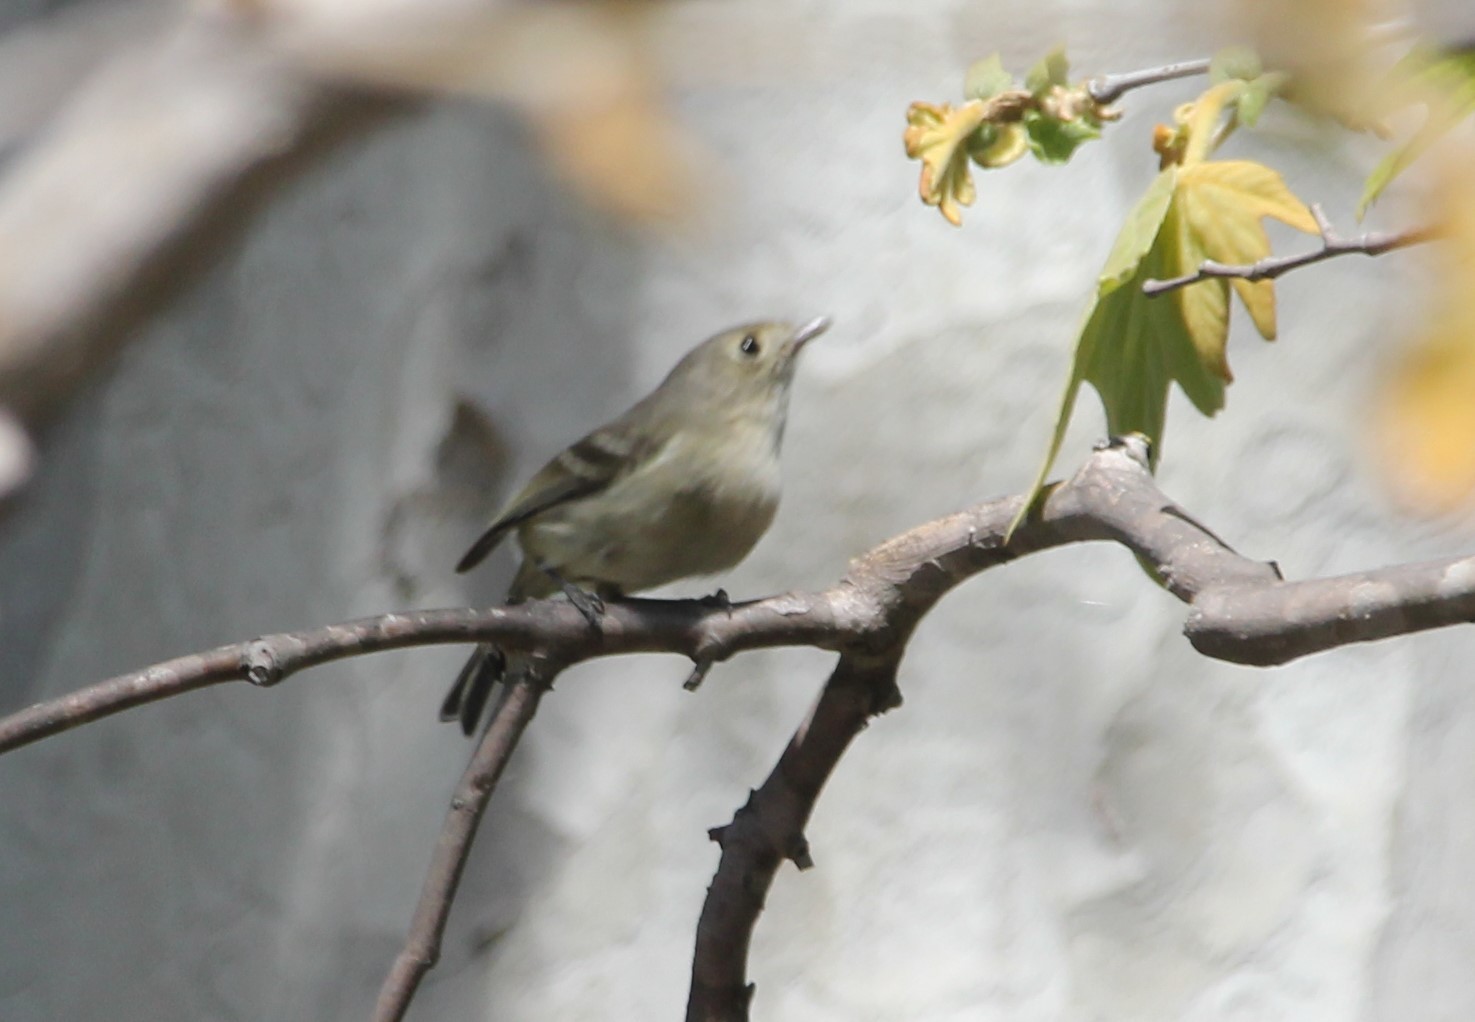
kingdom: Animalia
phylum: Chordata
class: Aves
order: Passeriformes
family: Vireonidae
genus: Vireo
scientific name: Vireo huttoni
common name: Hutton's vireo
